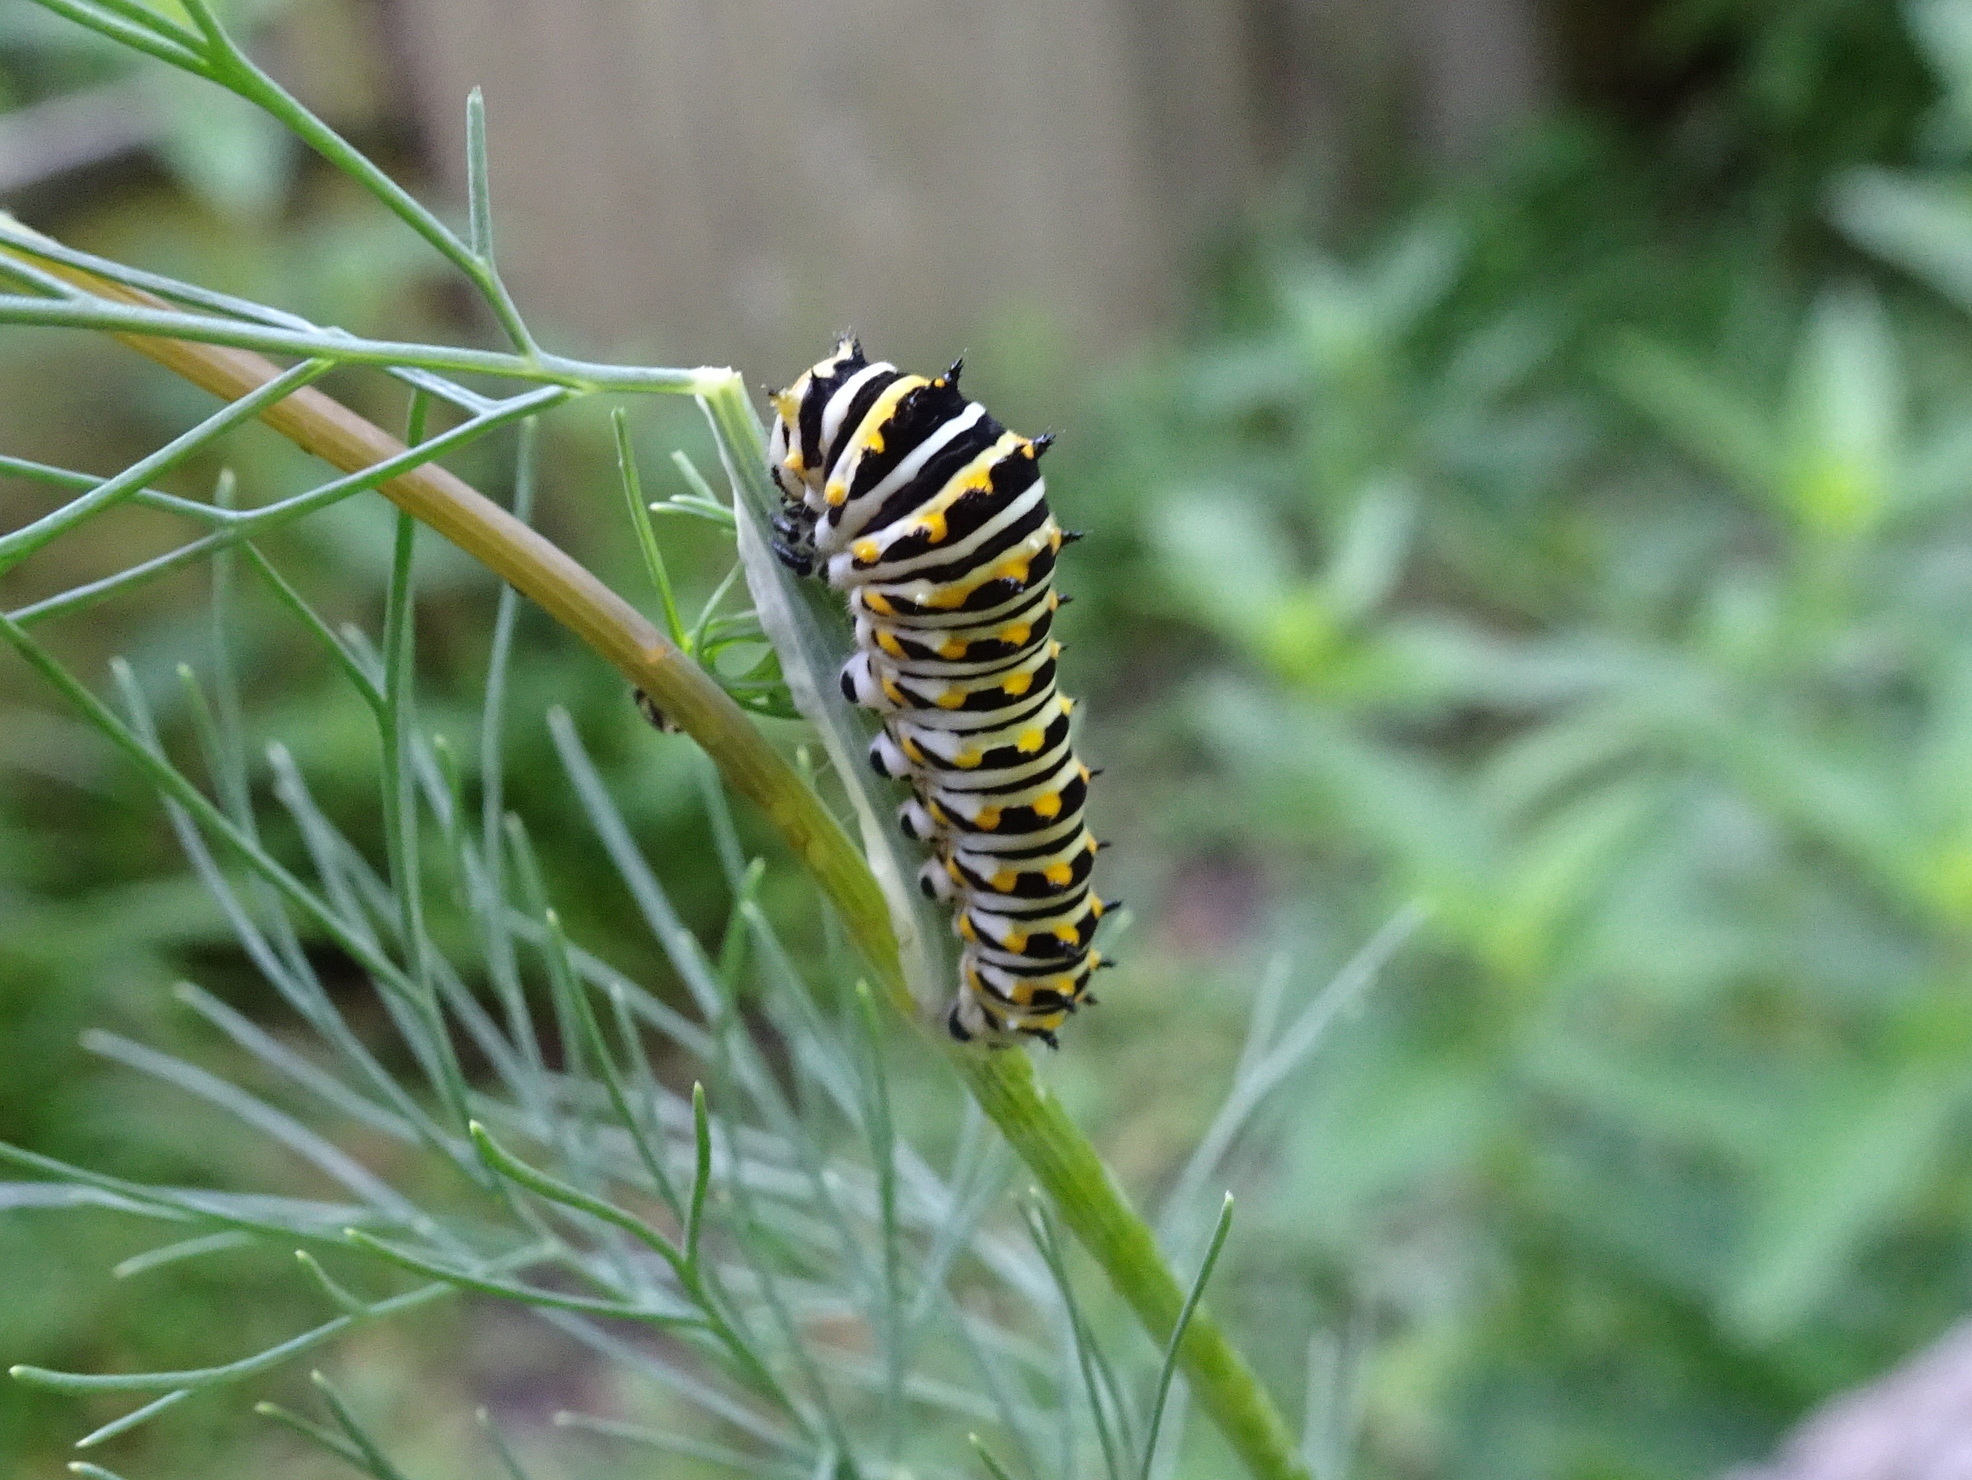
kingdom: Animalia
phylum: Arthropoda
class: Insecta
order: Lepidoptera
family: Papilionidae
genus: Papilio
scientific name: Papilio polyxenes
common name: Black swallowtail
